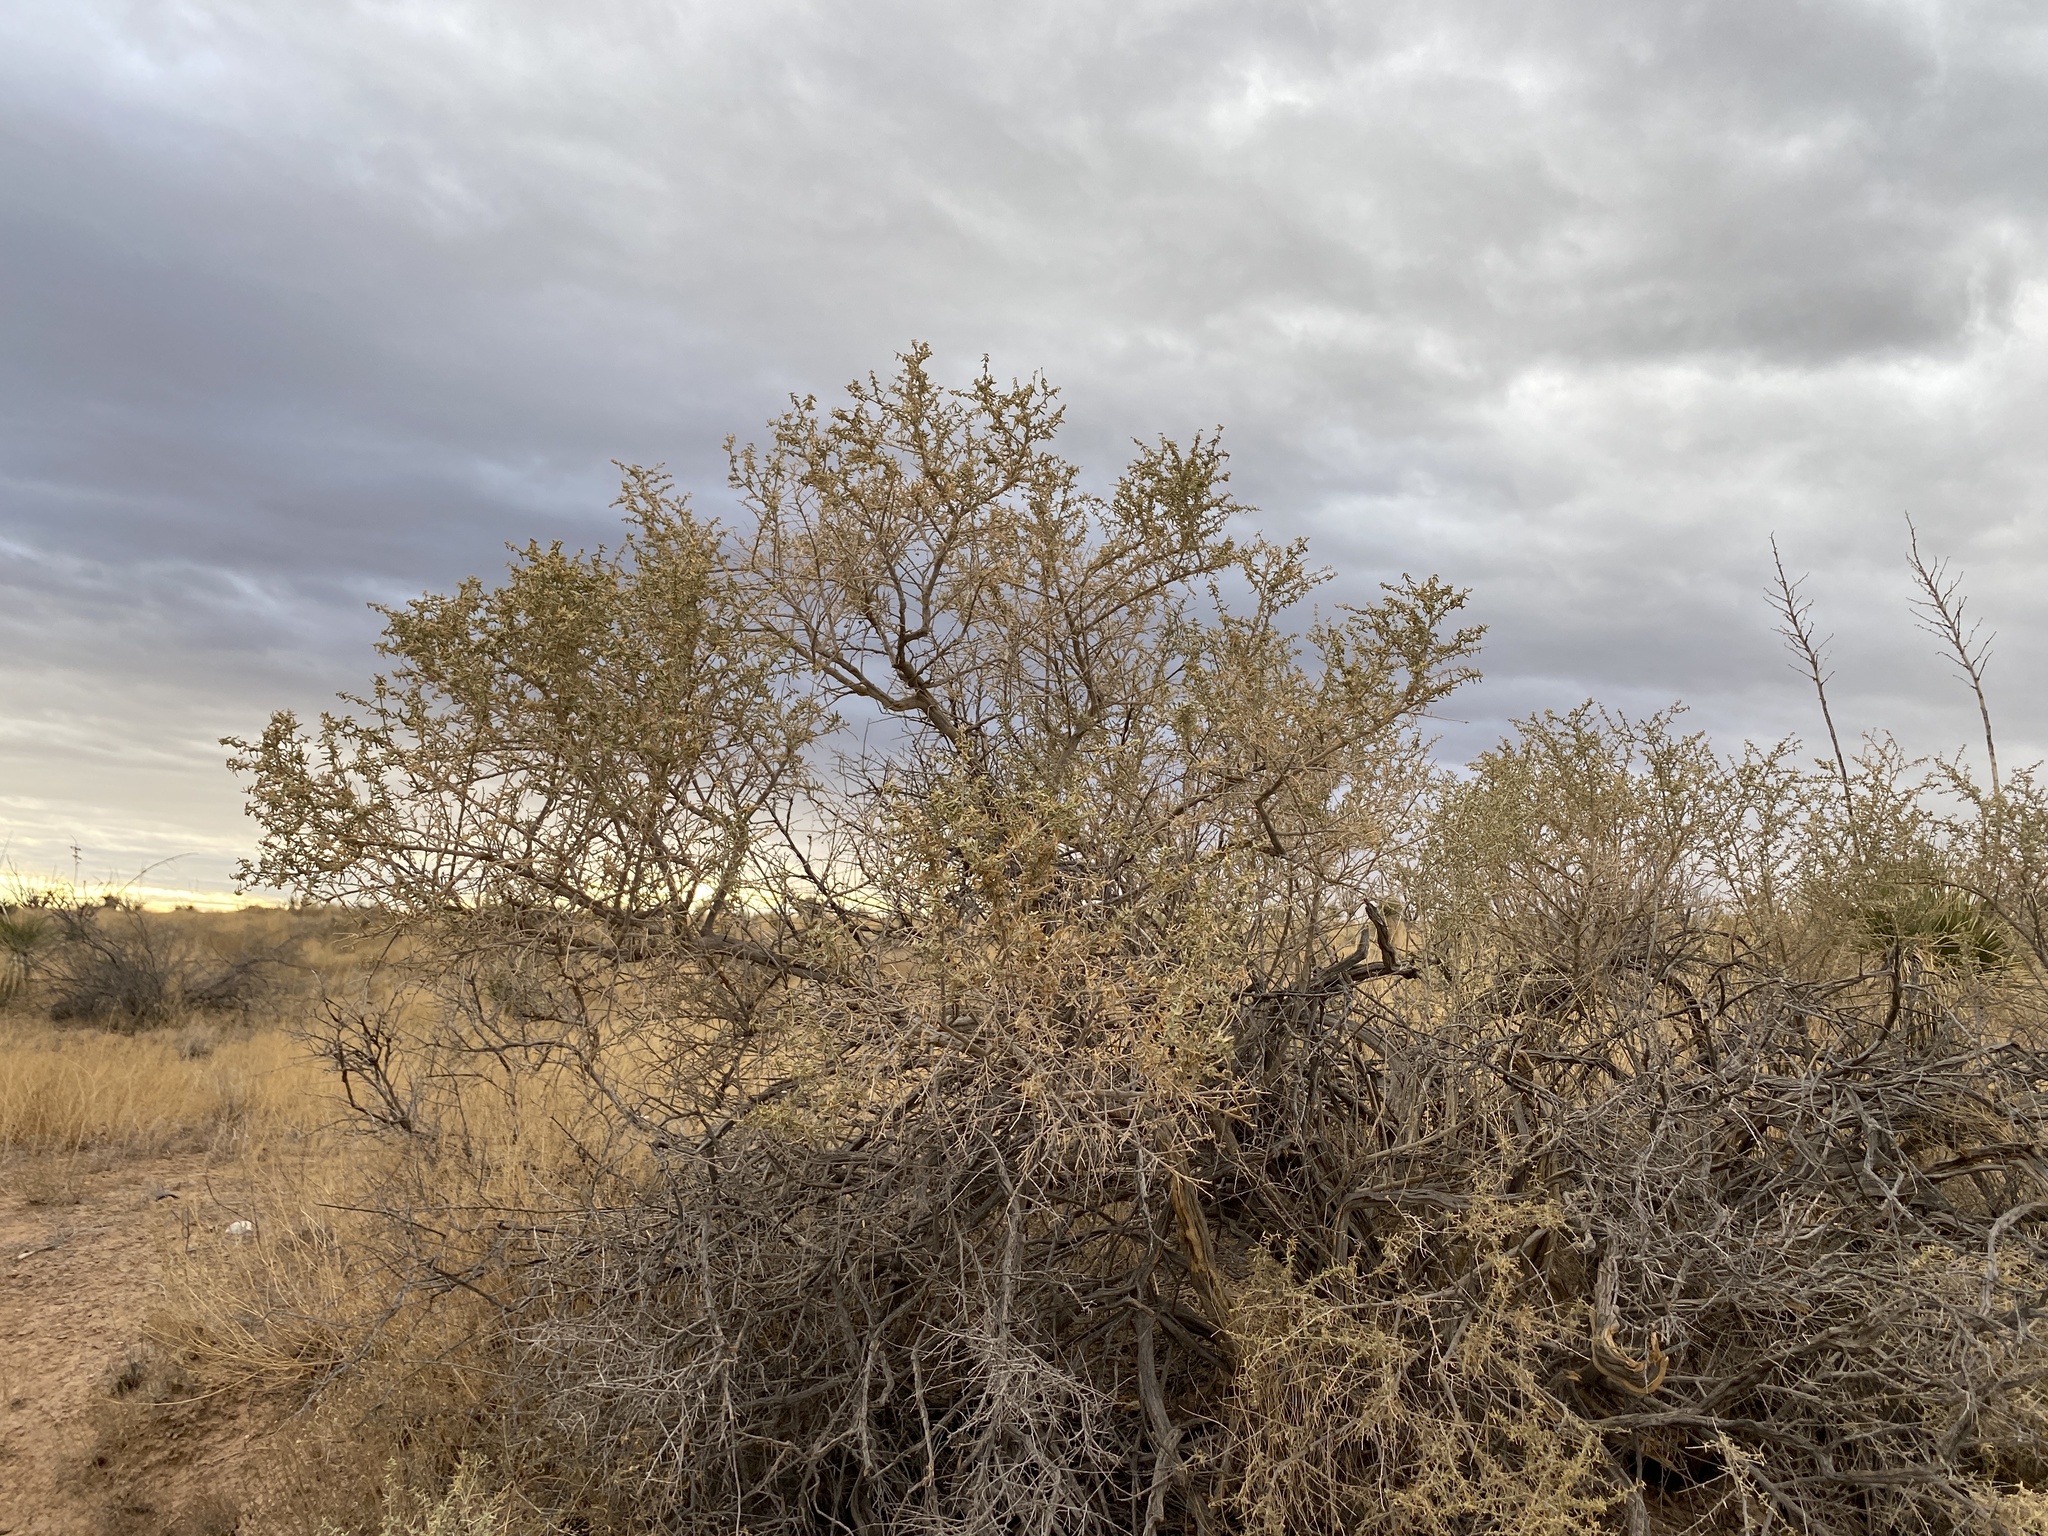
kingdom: Plantae
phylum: Tracheophyta
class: Magnoliopsida
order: Caryophyllales
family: Amaranthaceae
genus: Atriplex
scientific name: Atriplex canescens
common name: Four-wing saltbush
